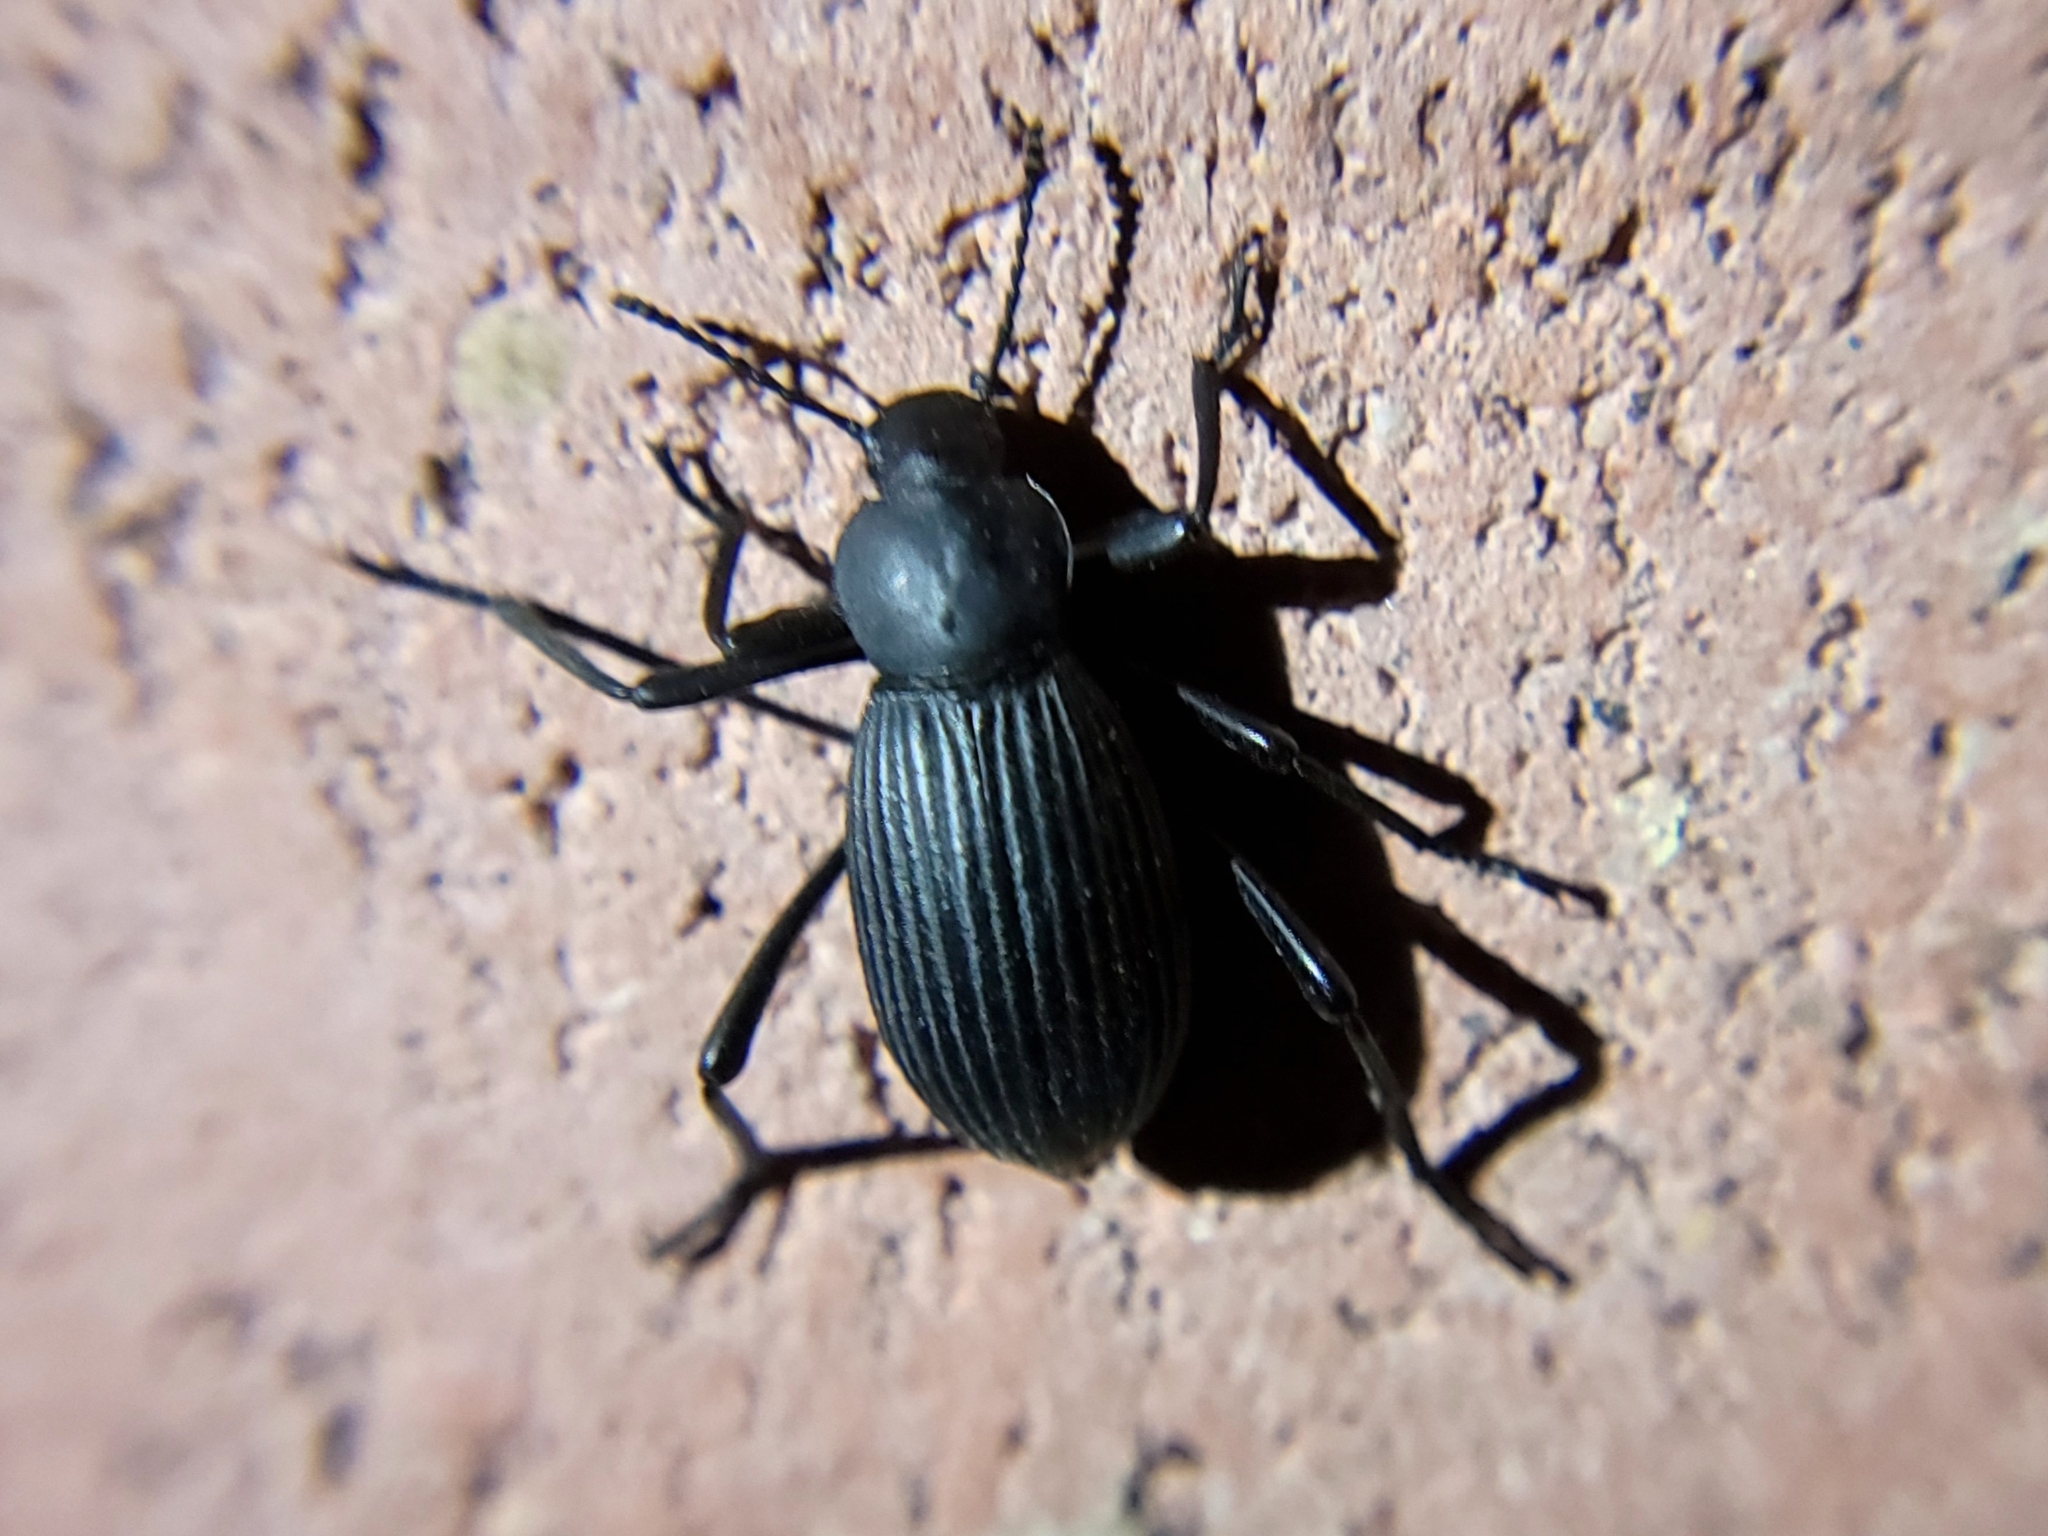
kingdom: Animalia
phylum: Arthropoda
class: Insecta
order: Coleoptera
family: Tenebrionidae
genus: Eleodes
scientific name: Eleodes hispilabris
